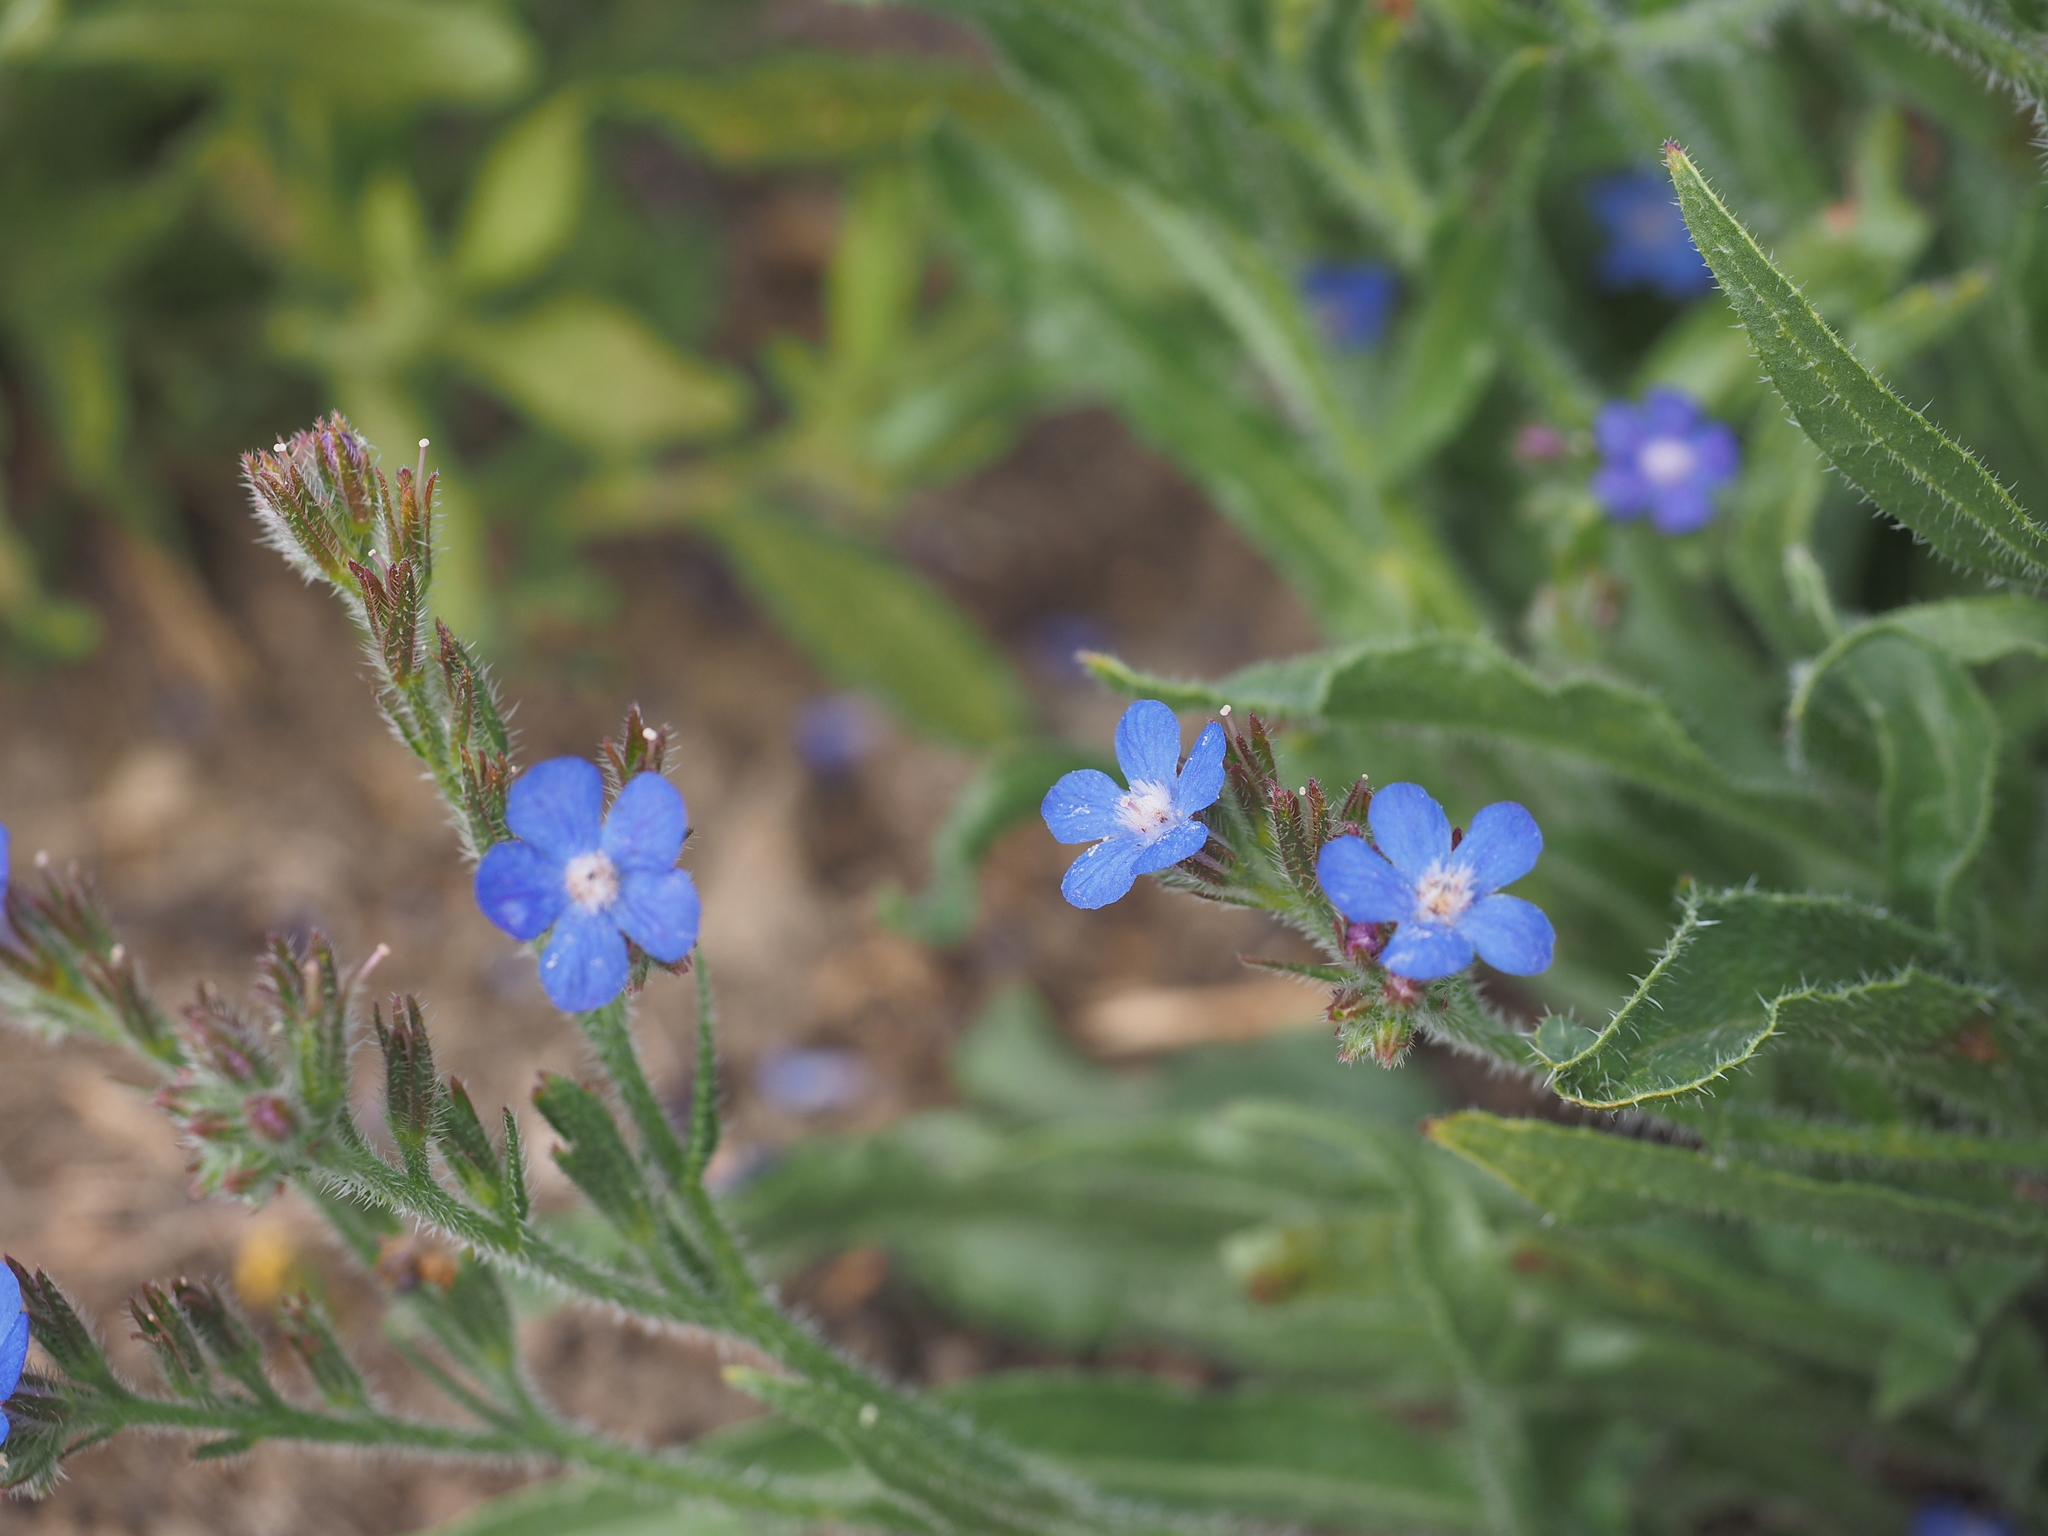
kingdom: Plantae
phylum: Tracheophyta
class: Magnoliopsida
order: Boraginales
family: Boraginaceae
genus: Anchusa
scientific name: Anchusa azurea
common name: Garden anchusa
